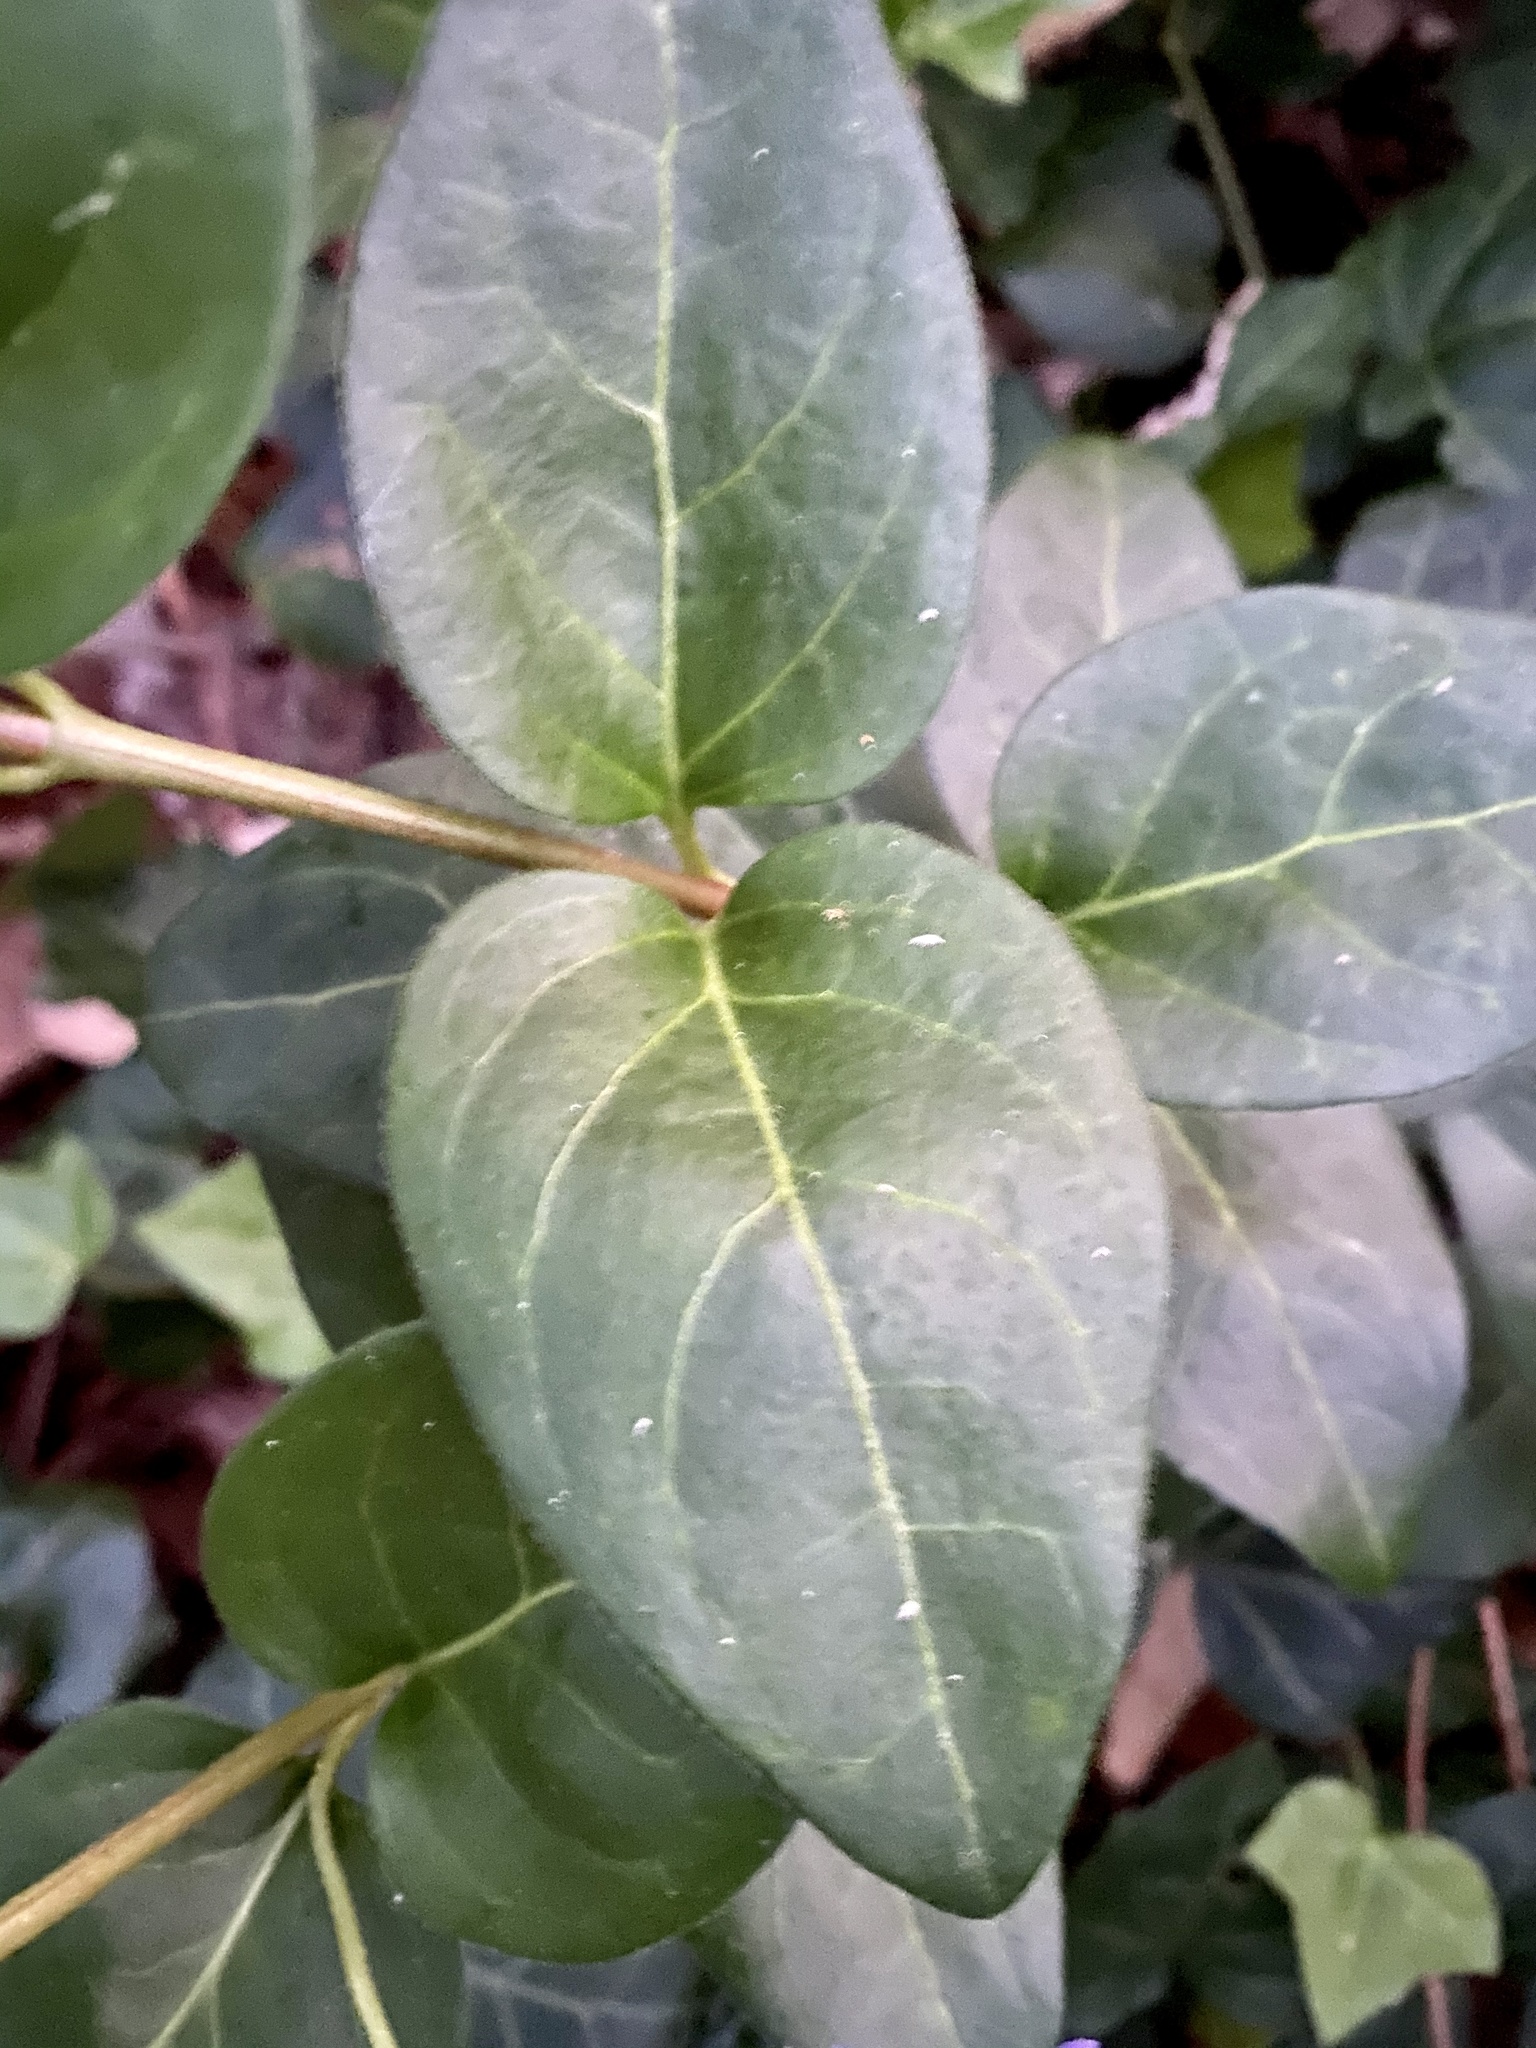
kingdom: Plantae
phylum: Tracheophyta
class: Magnoliopsida
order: Gentianales
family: Apocynaceae
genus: Vinca
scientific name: Vinca major
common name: Greater periwinkle
